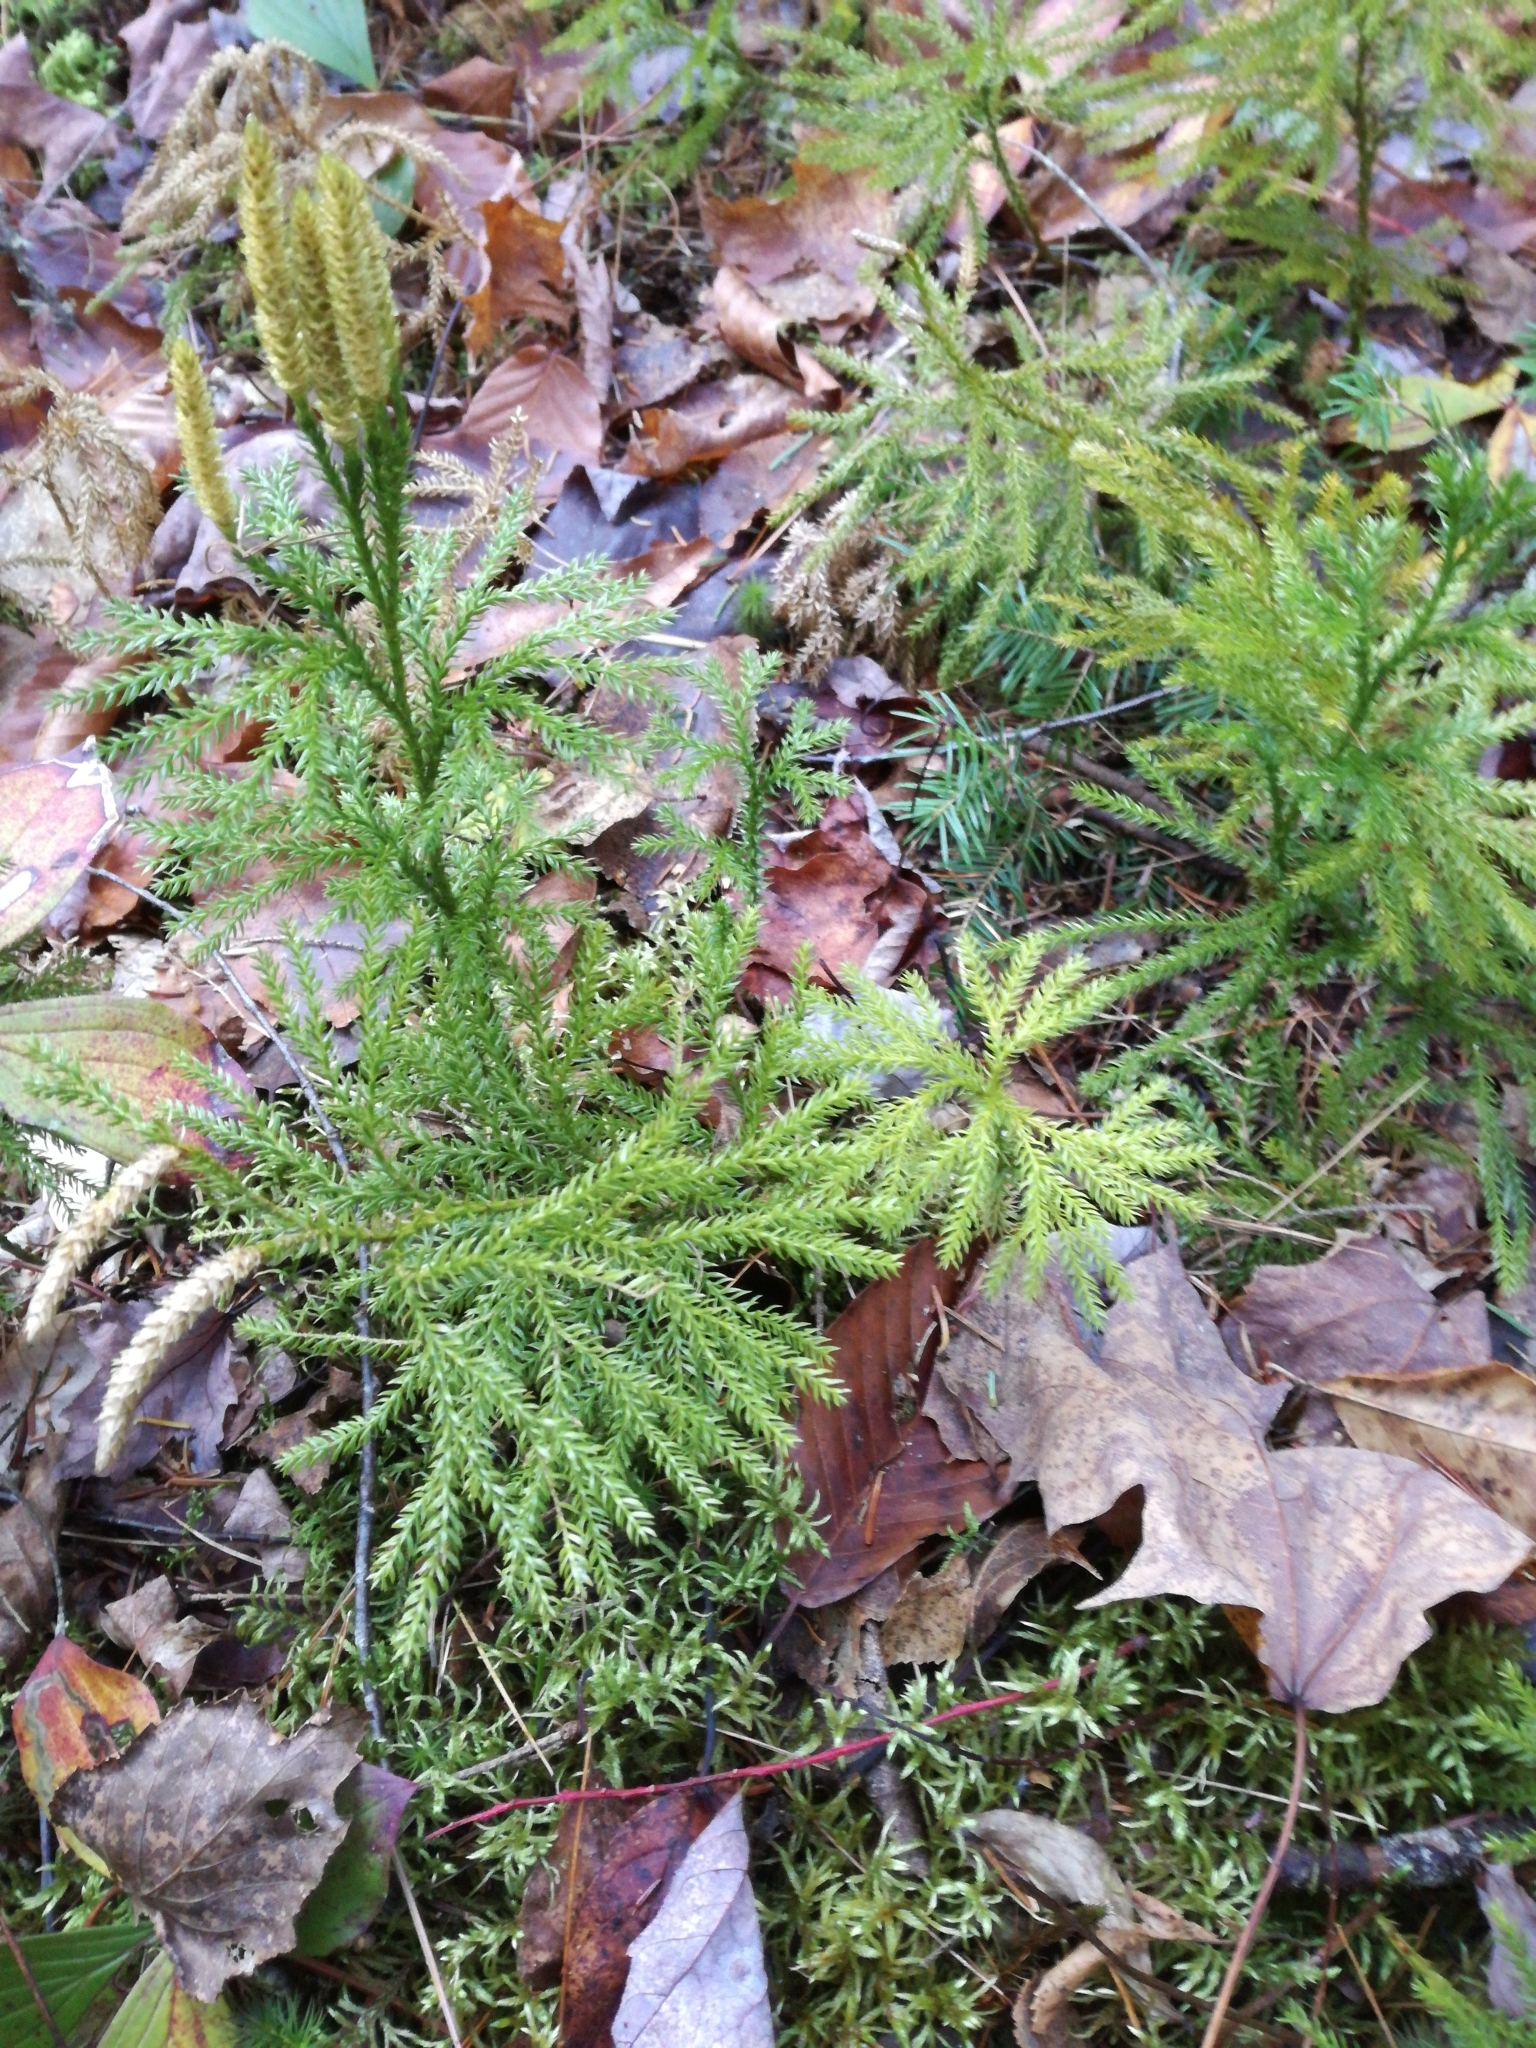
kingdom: Plantae
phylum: Tracheophyta
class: Lycopodiopsida
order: Lycopodiales
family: Lycopodiaceae
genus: Dendrolycopodium
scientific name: Dendrolycopodium dendroideum
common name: Northern tree-clubmoss
